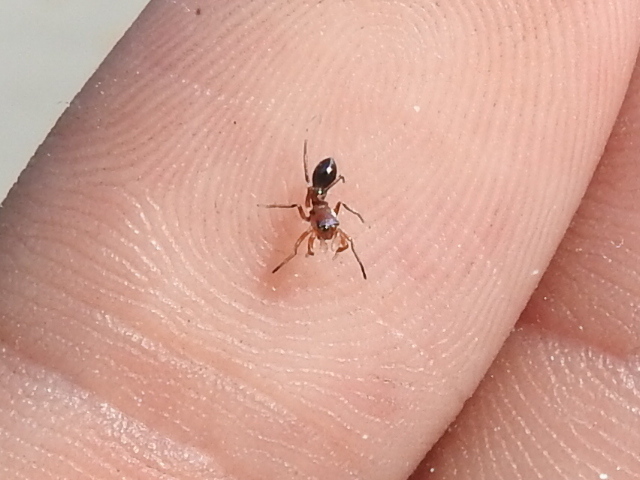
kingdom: Animalia
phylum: Arthropoda
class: Arachnida
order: Araneae
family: Salticidae
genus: Peckhamia
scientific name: Peckhamia
